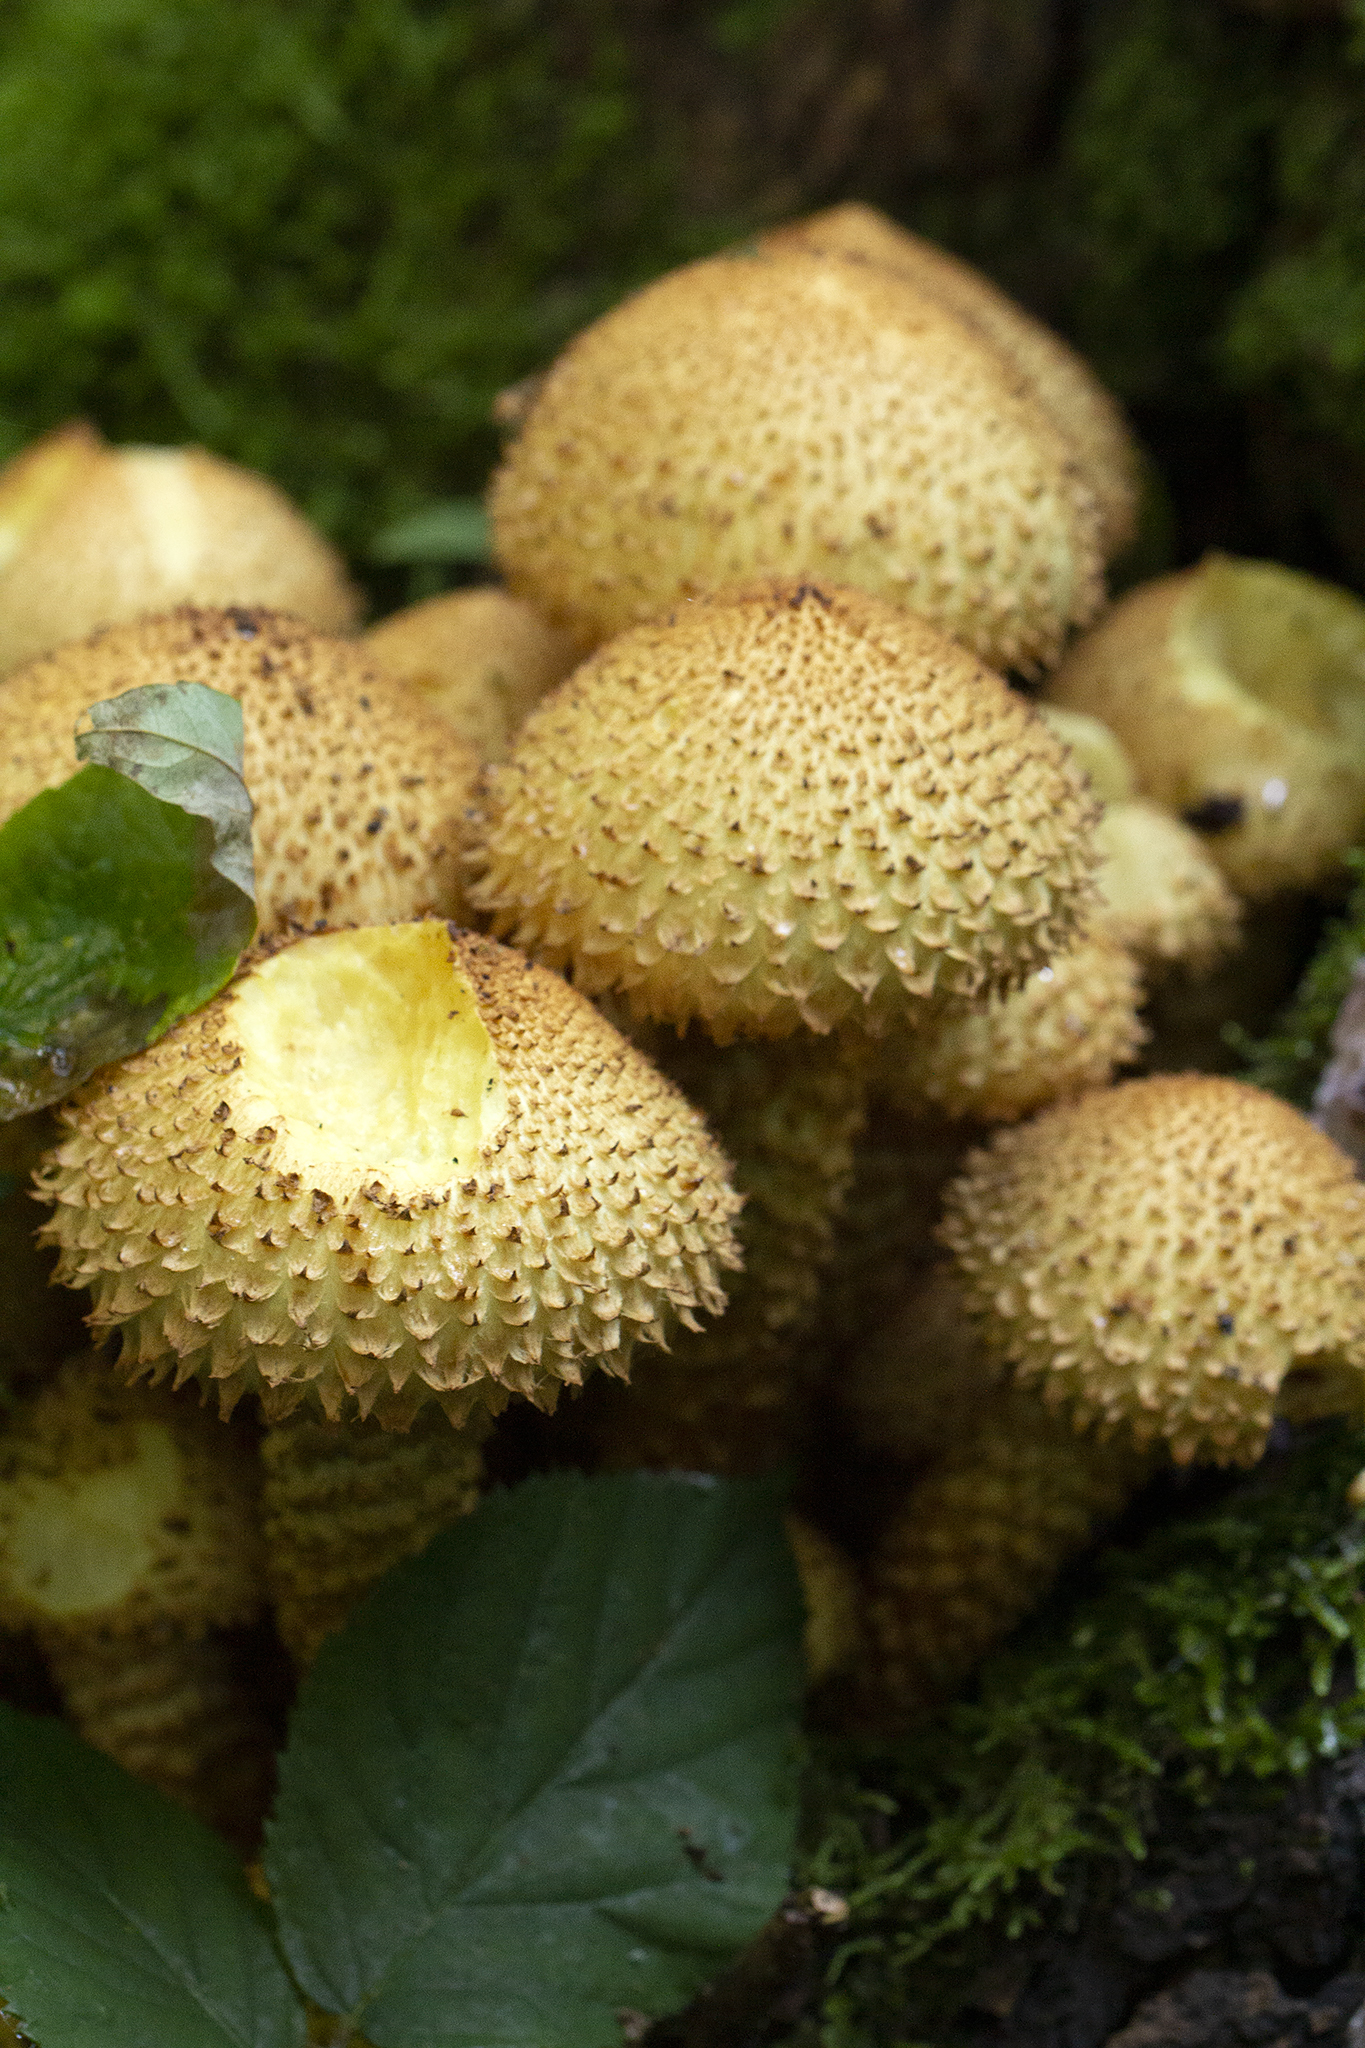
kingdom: Fungi
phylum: Basidiomycota
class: Agaricomycetes
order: Agaricales
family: Strophariaceae
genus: Pholiota
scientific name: Pholiota squarrosa
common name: Shaggy pholiota
